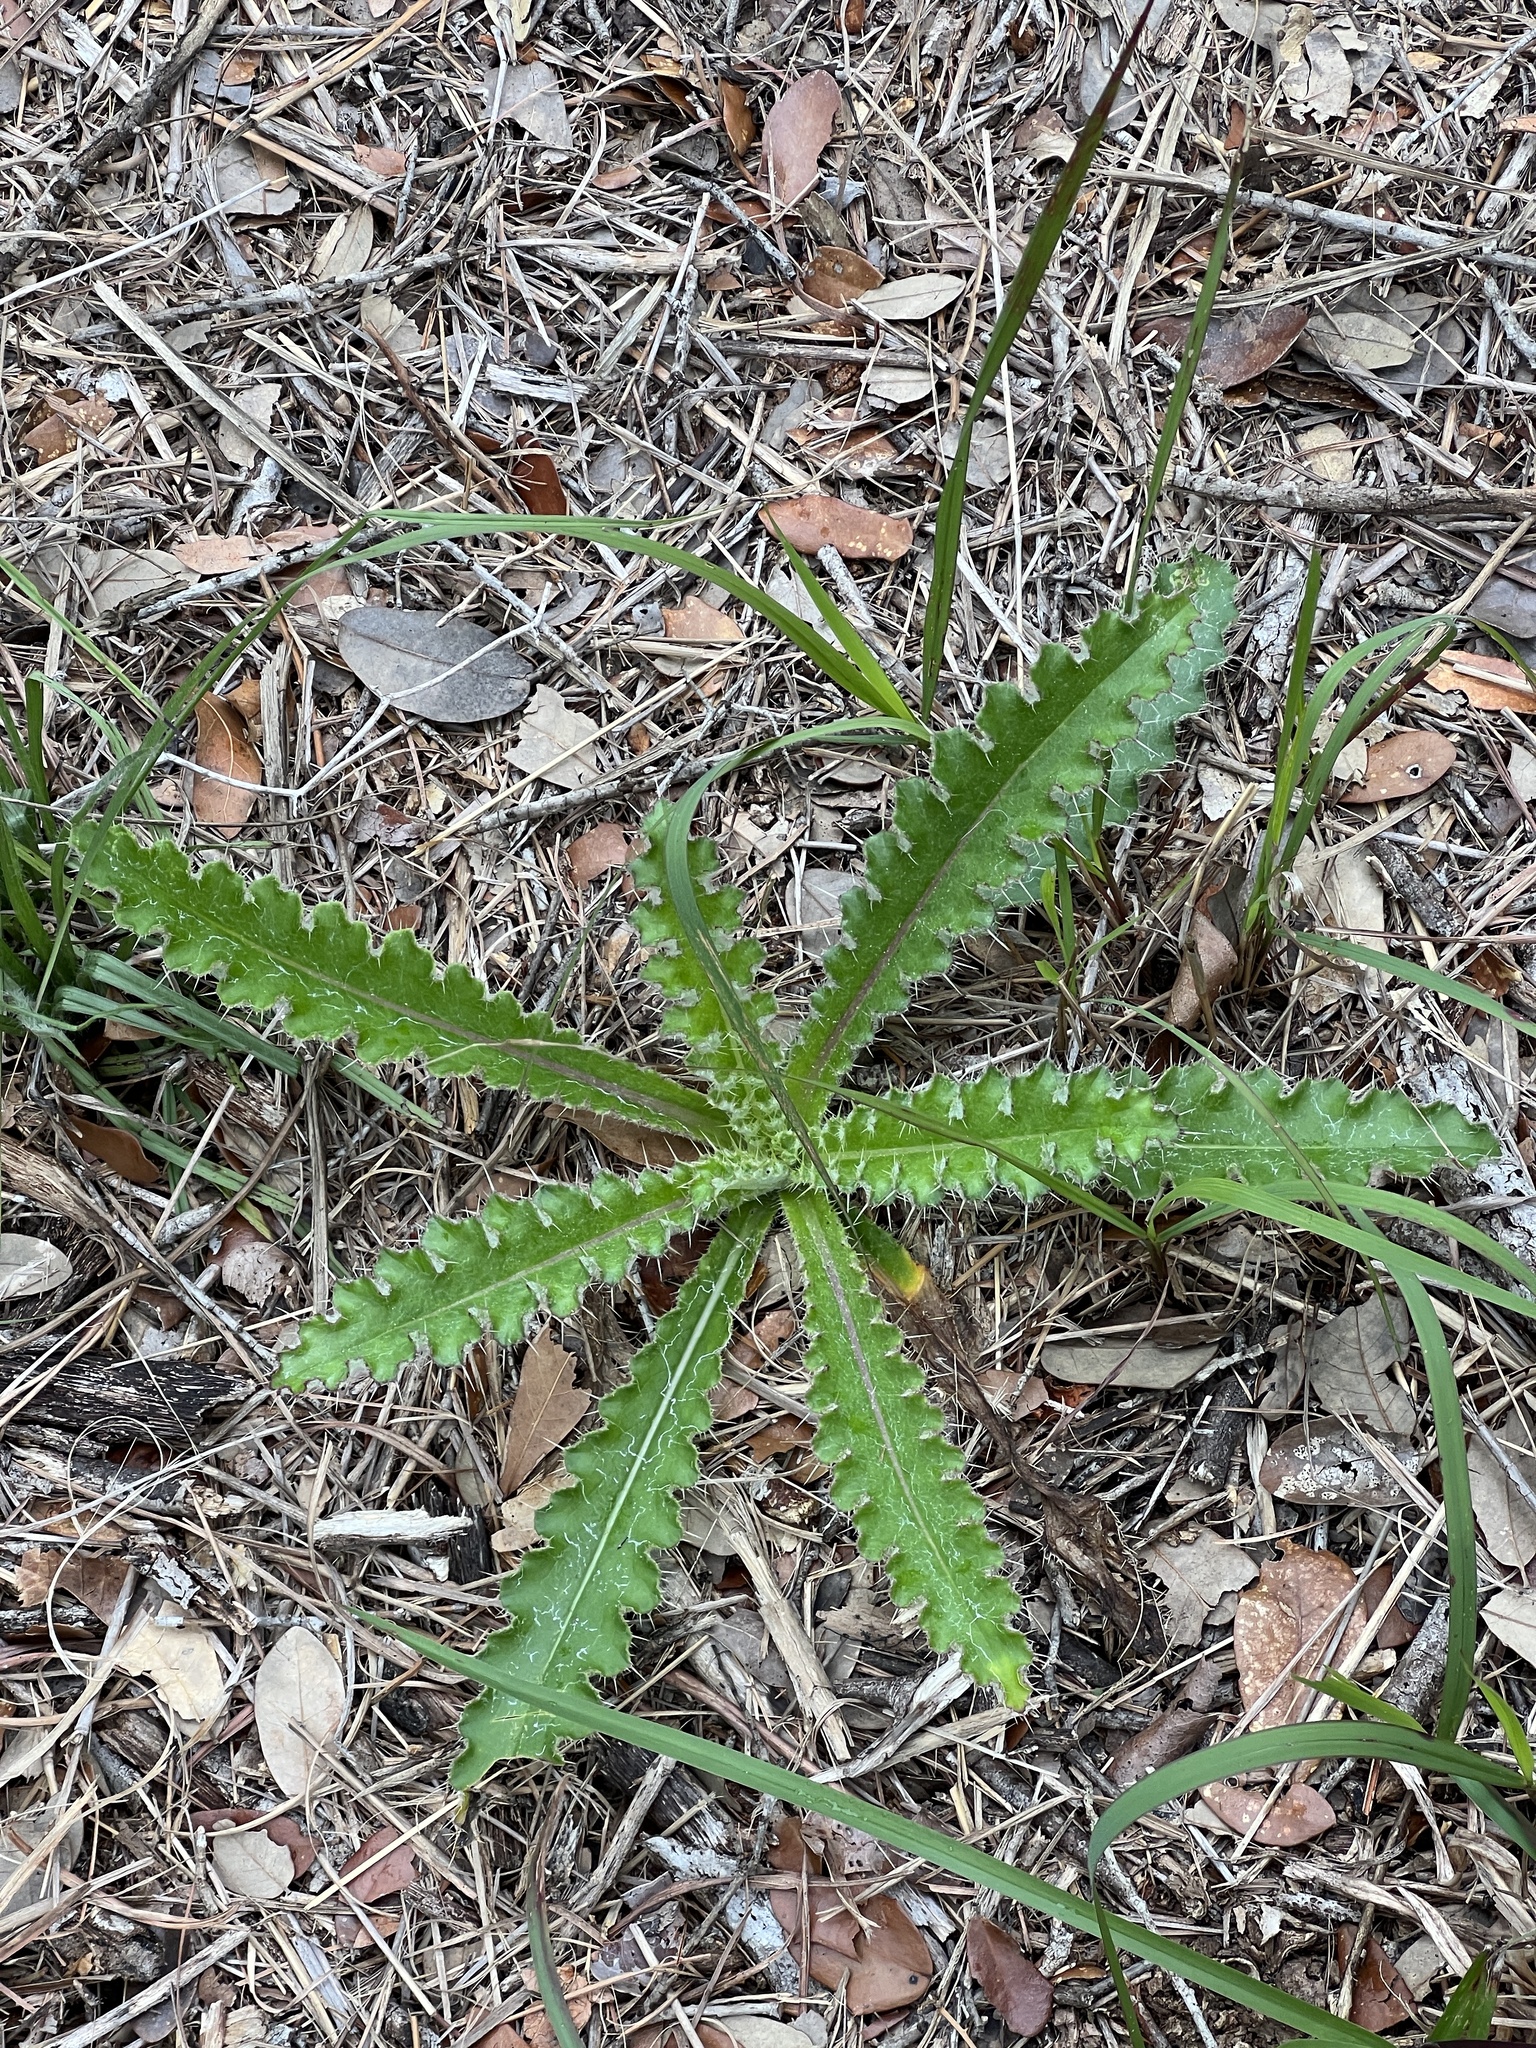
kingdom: Plantae
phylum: Tracheophyta
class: Magnoliopsida
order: Asterales
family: Asteraceae
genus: Cirsium
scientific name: Cirsium horridulum
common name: Bristly thistle
